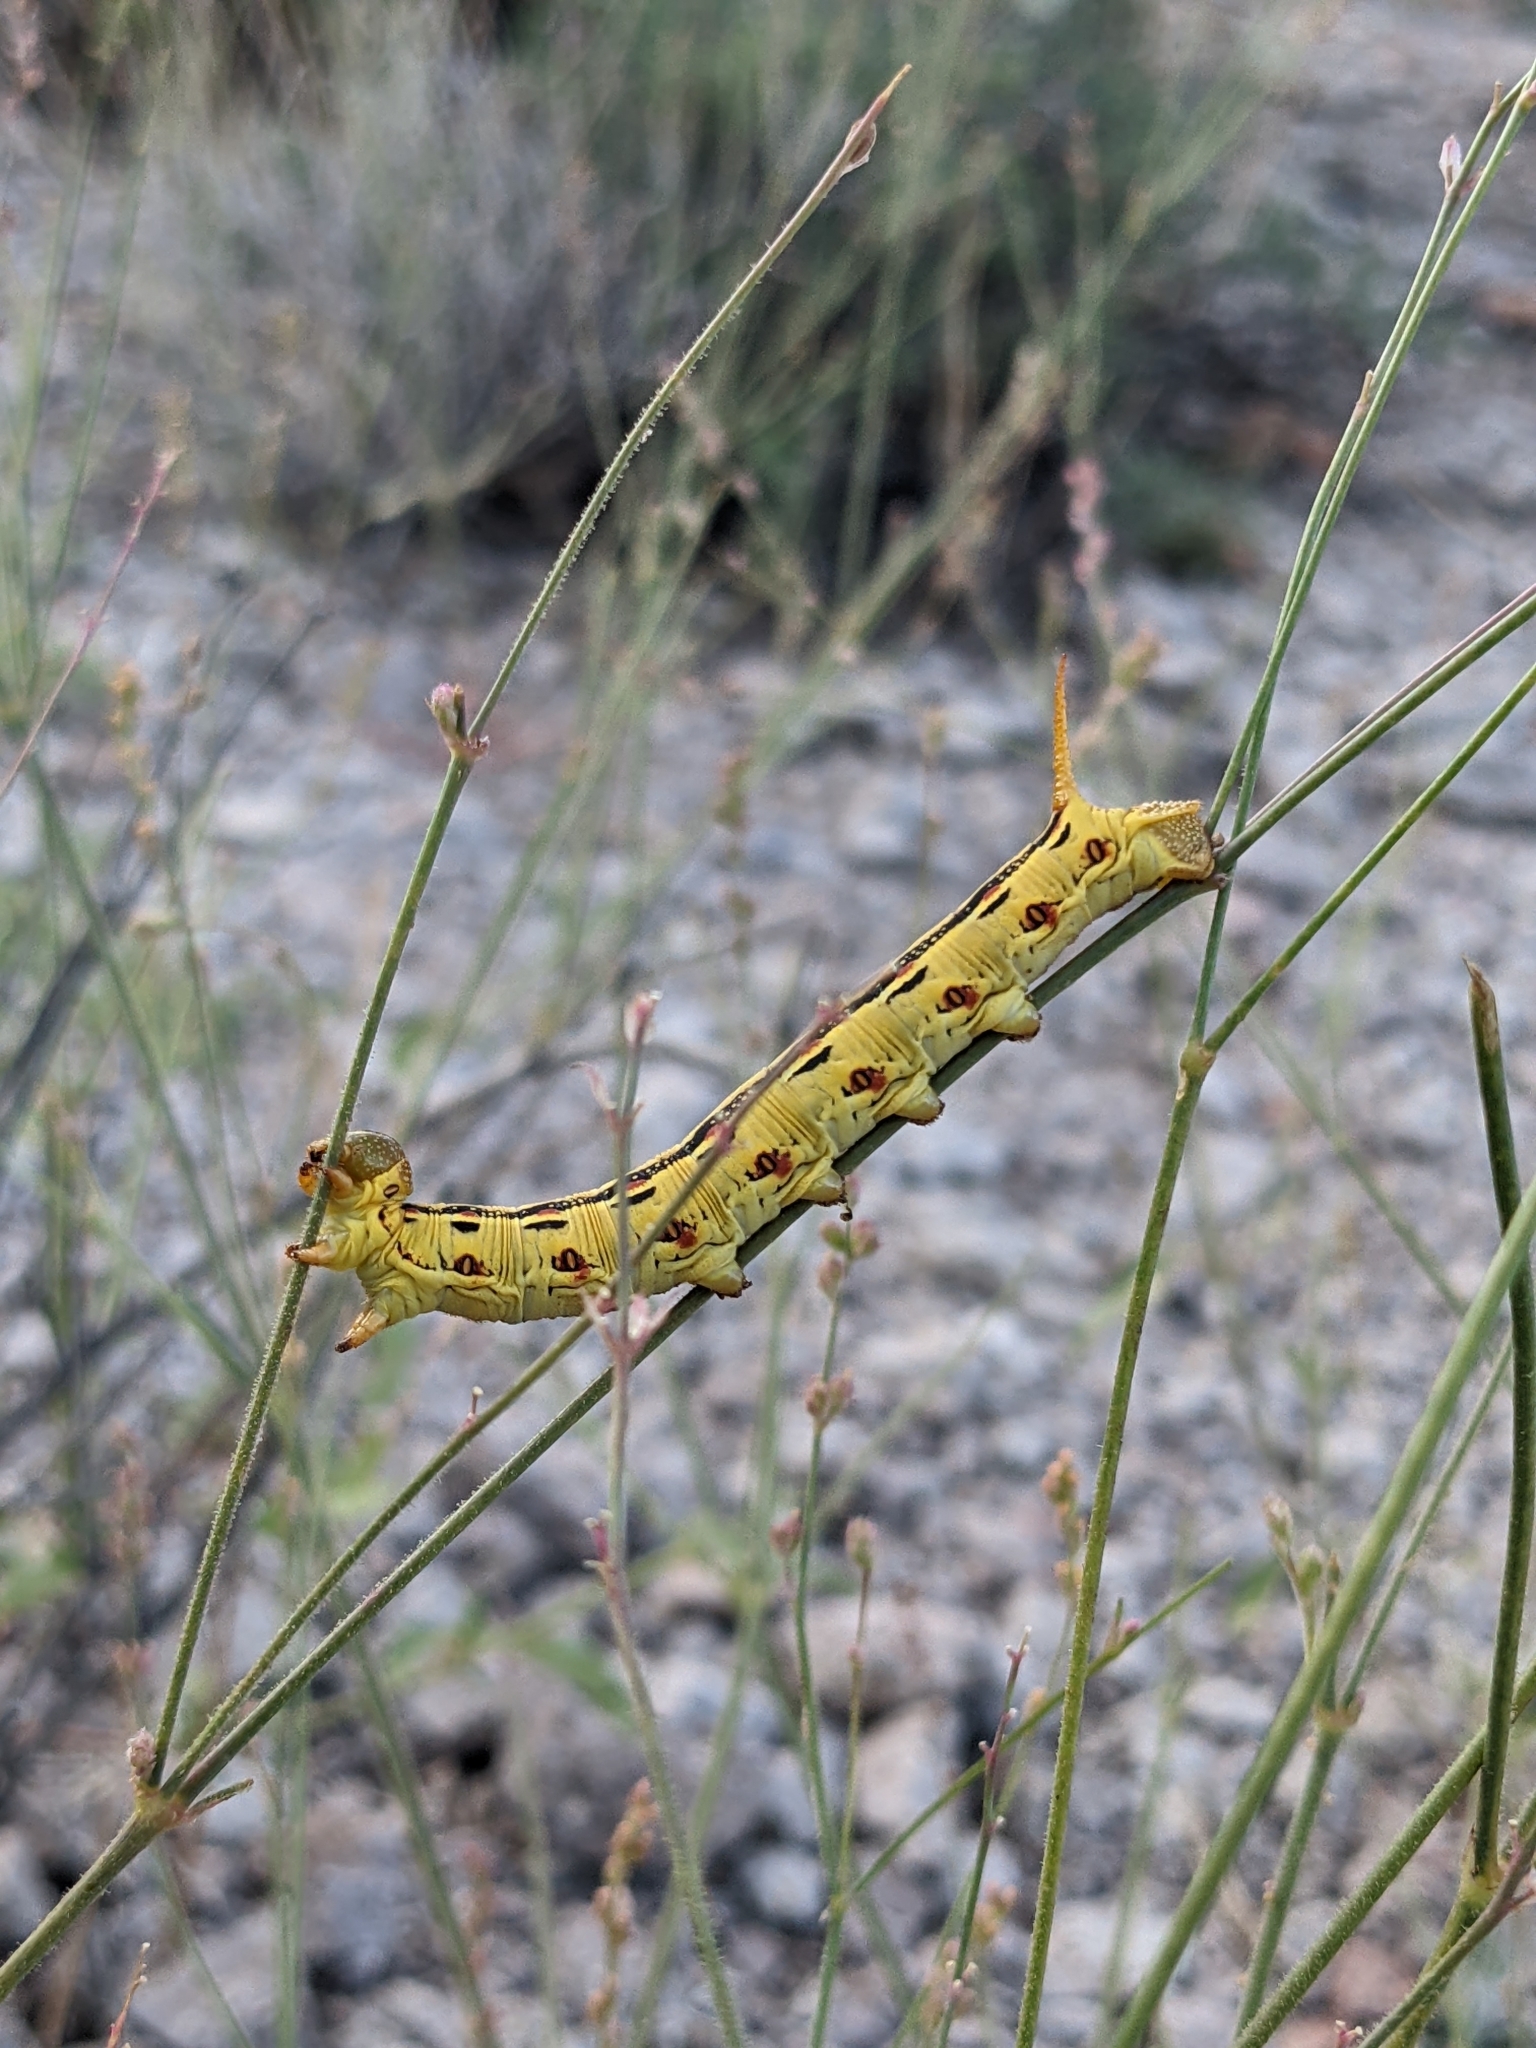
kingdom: Animalia
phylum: Arthropoda
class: Insecta
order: Lepidoptera
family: Sphingidae
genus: Hyles
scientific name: Hyles lineata
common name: White-lined sphinx
